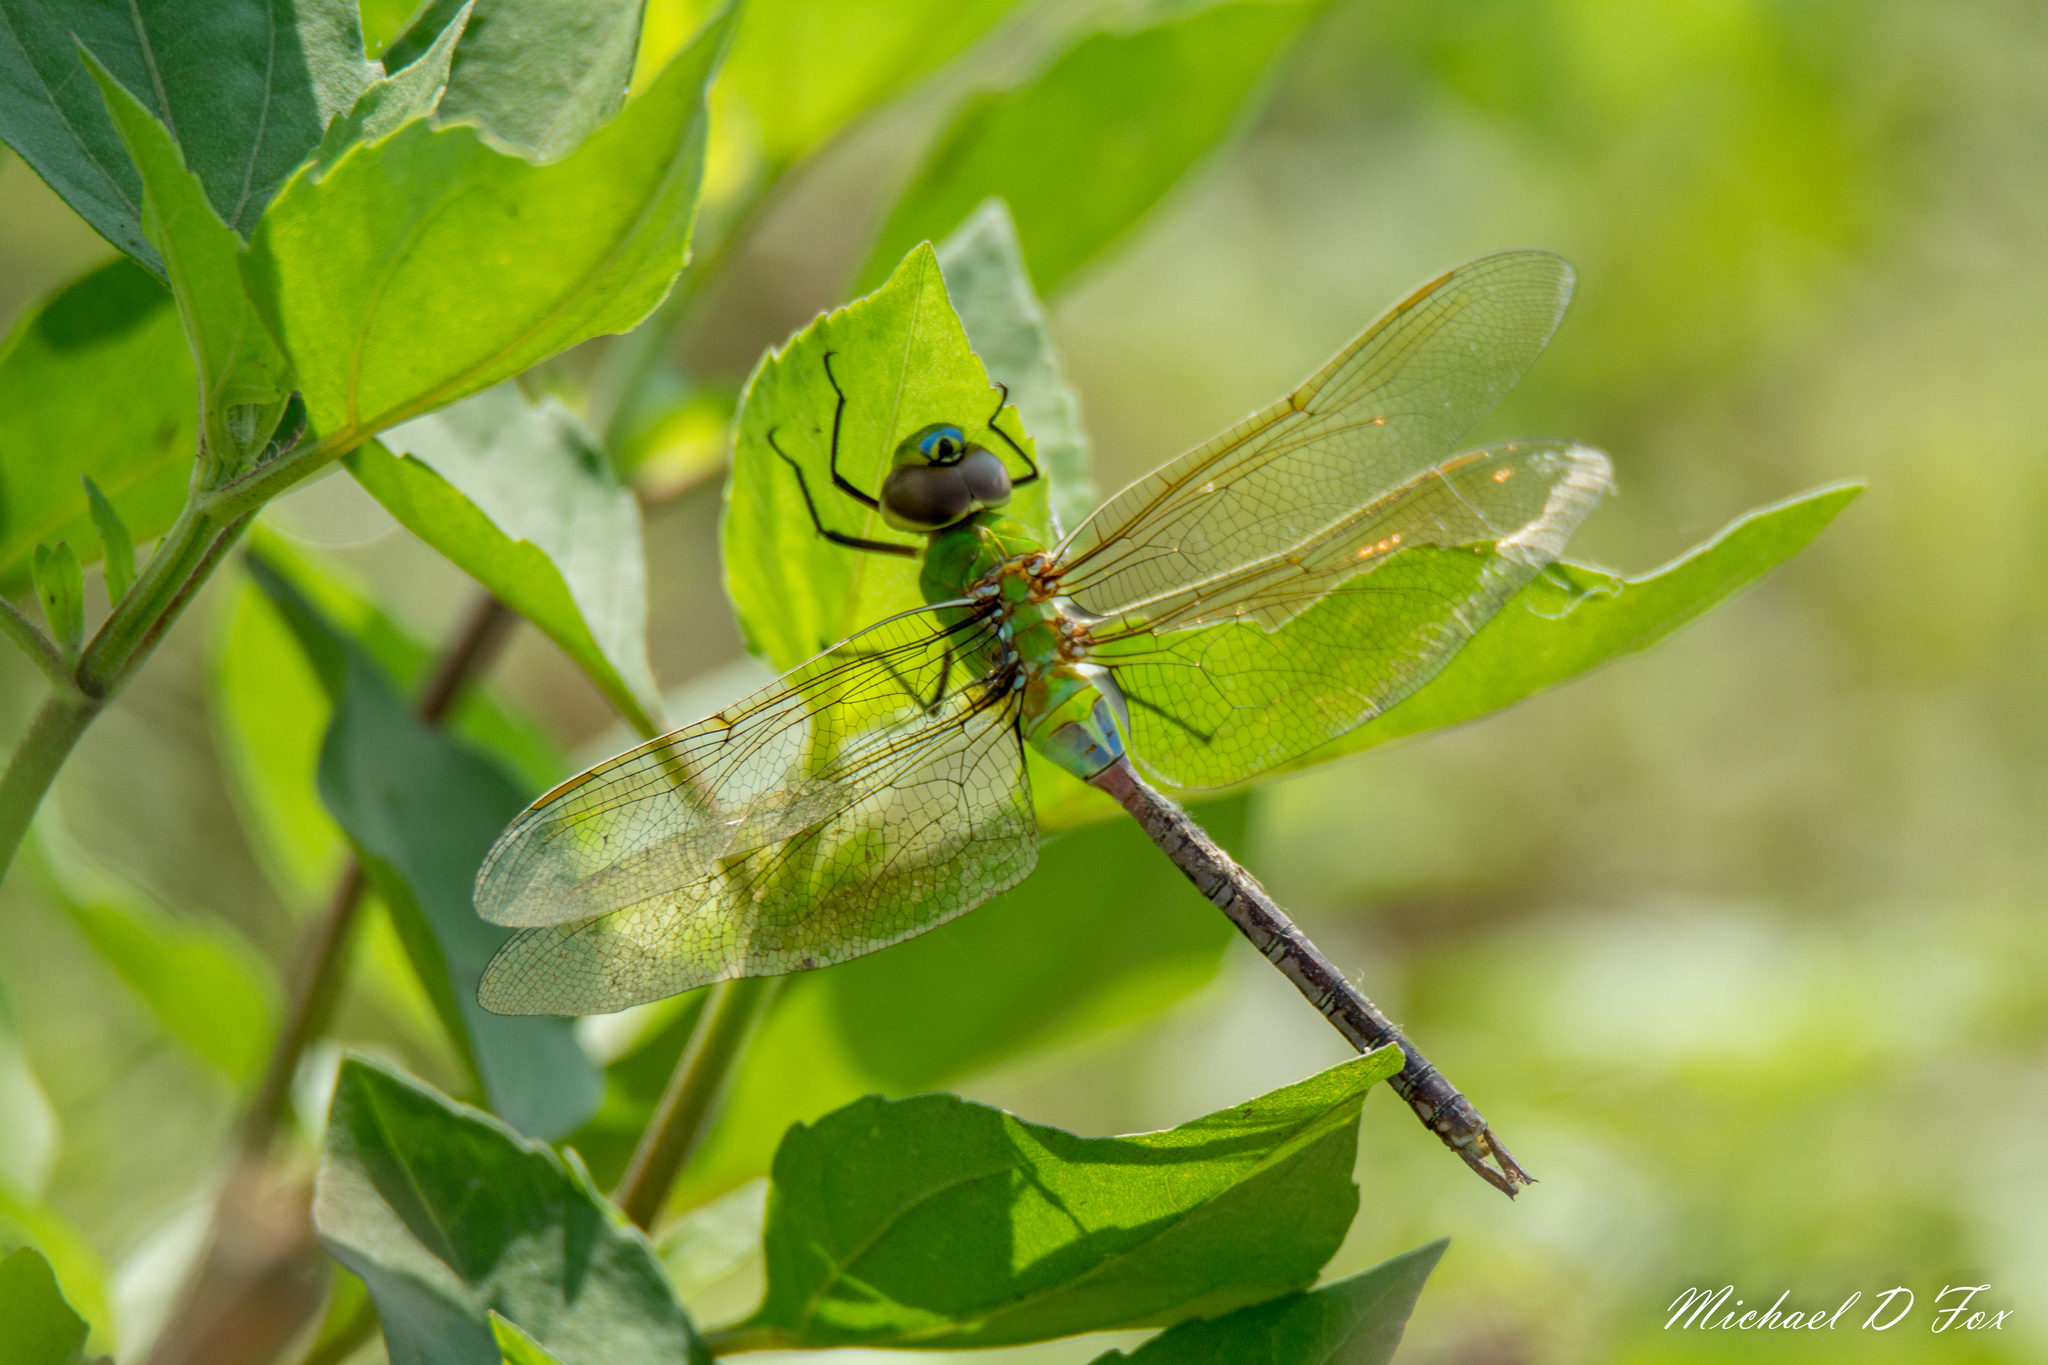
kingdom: Animalia
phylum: Arthropoda
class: Insecta
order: Odonata
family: Aeshnidae
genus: Anax
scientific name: Anax junius
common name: Common green darner
